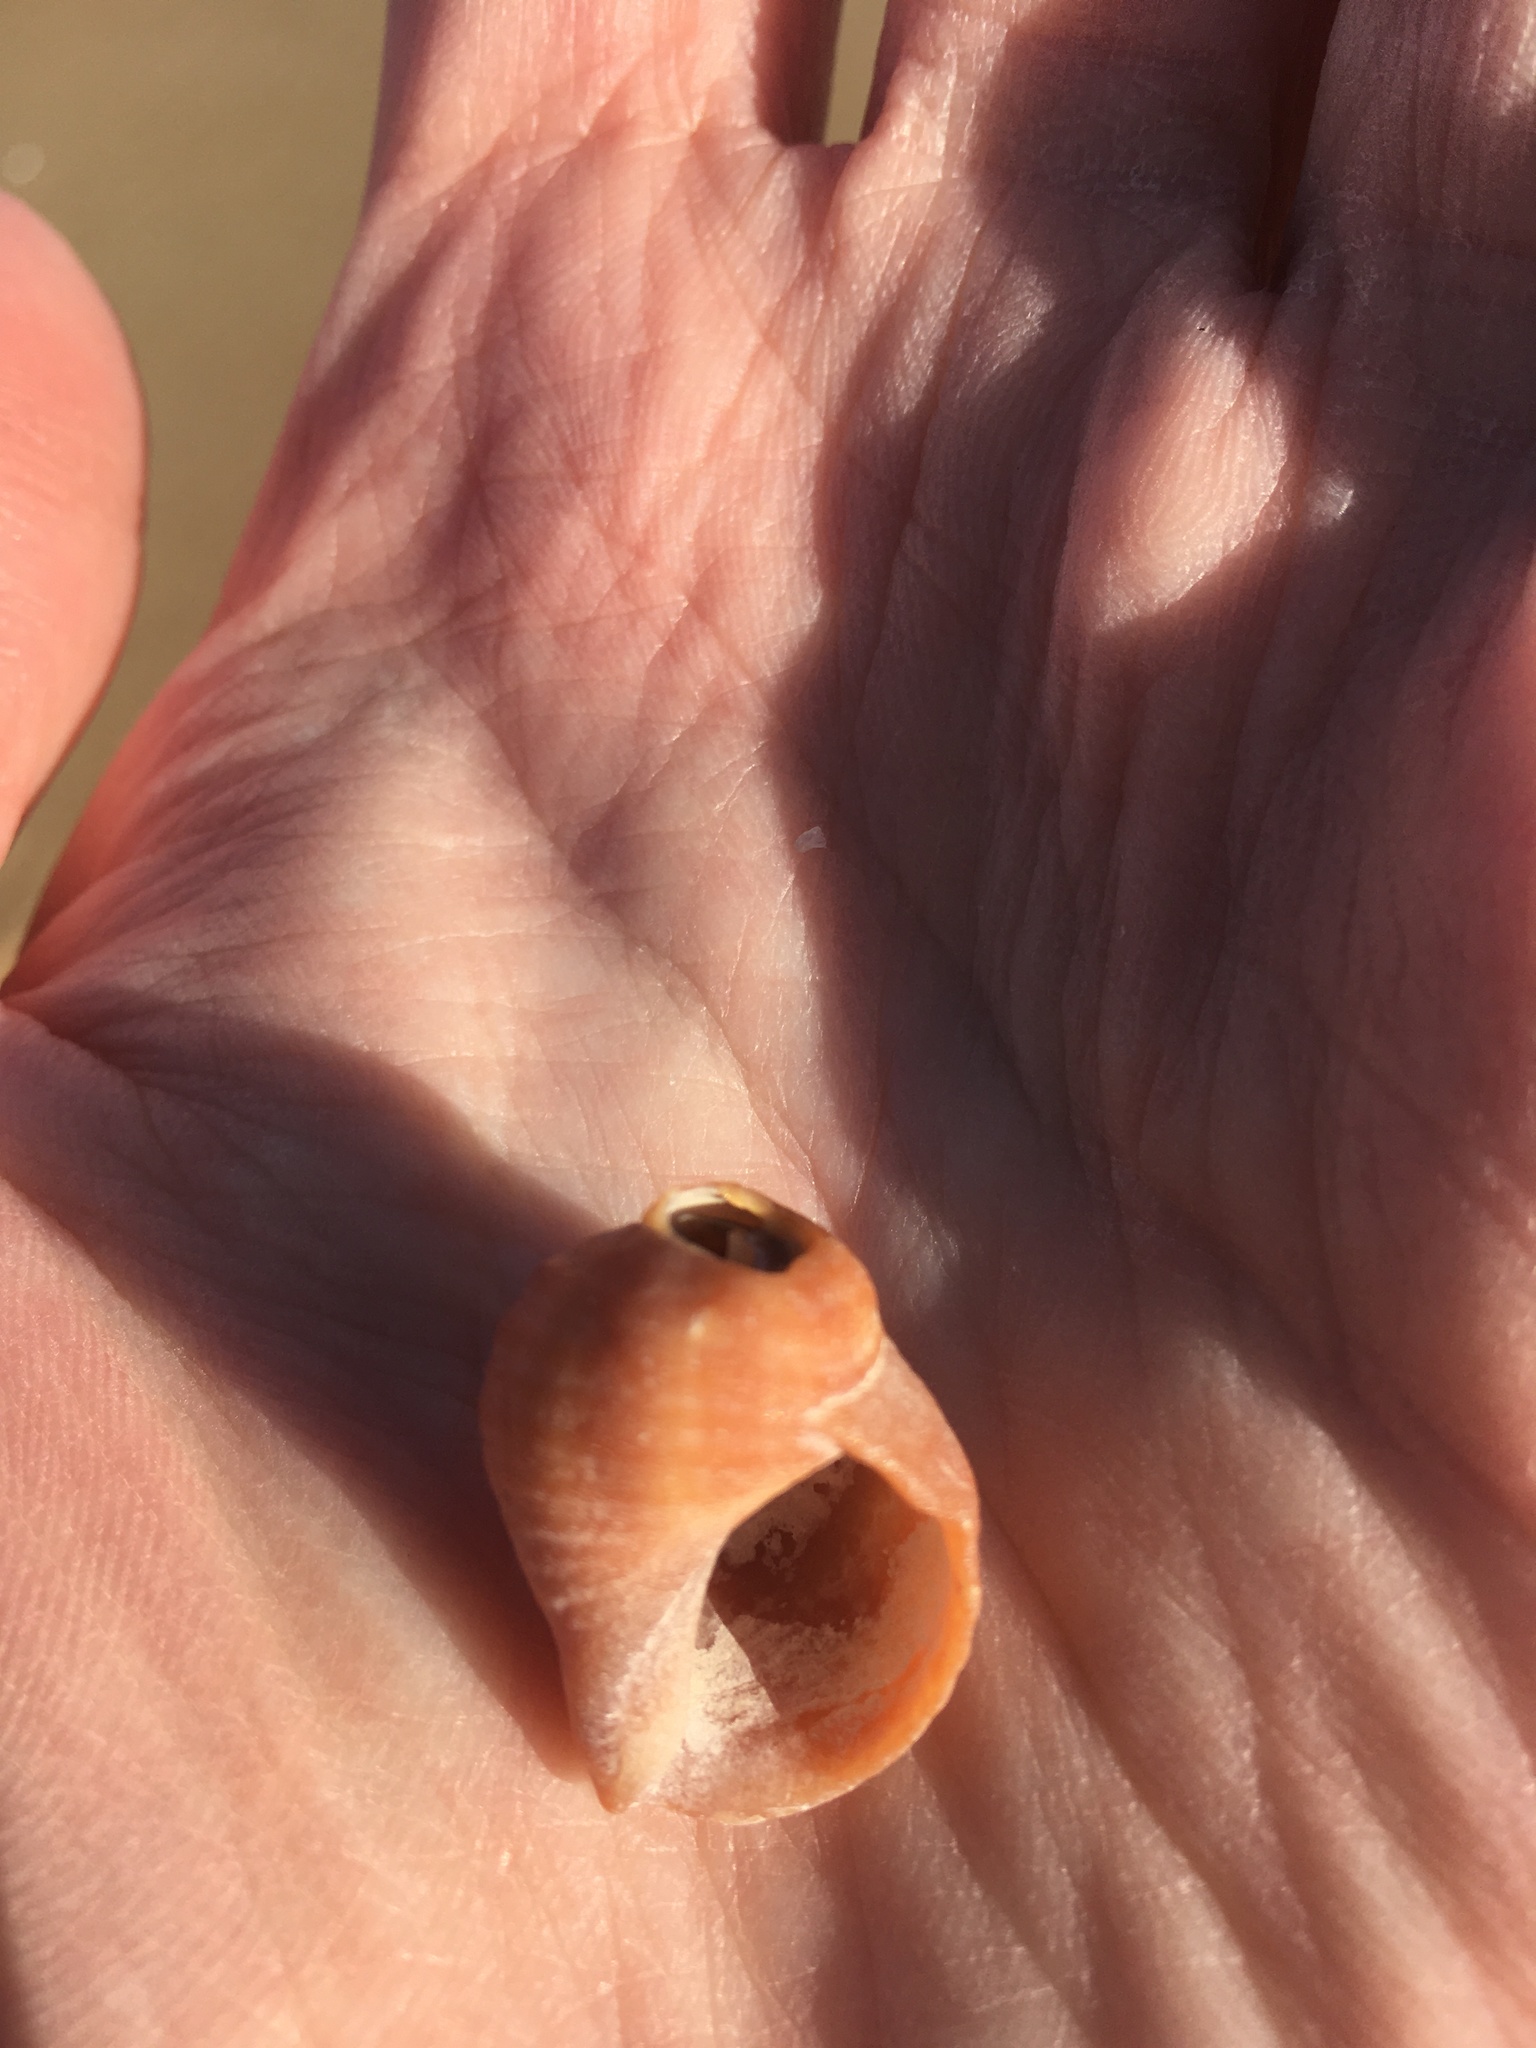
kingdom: Animalia
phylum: Mollusca
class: Gastropoda
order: Neogastropoda
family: Muricidae
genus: Nucella
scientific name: Nucella lapillus
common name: Dog whelk
